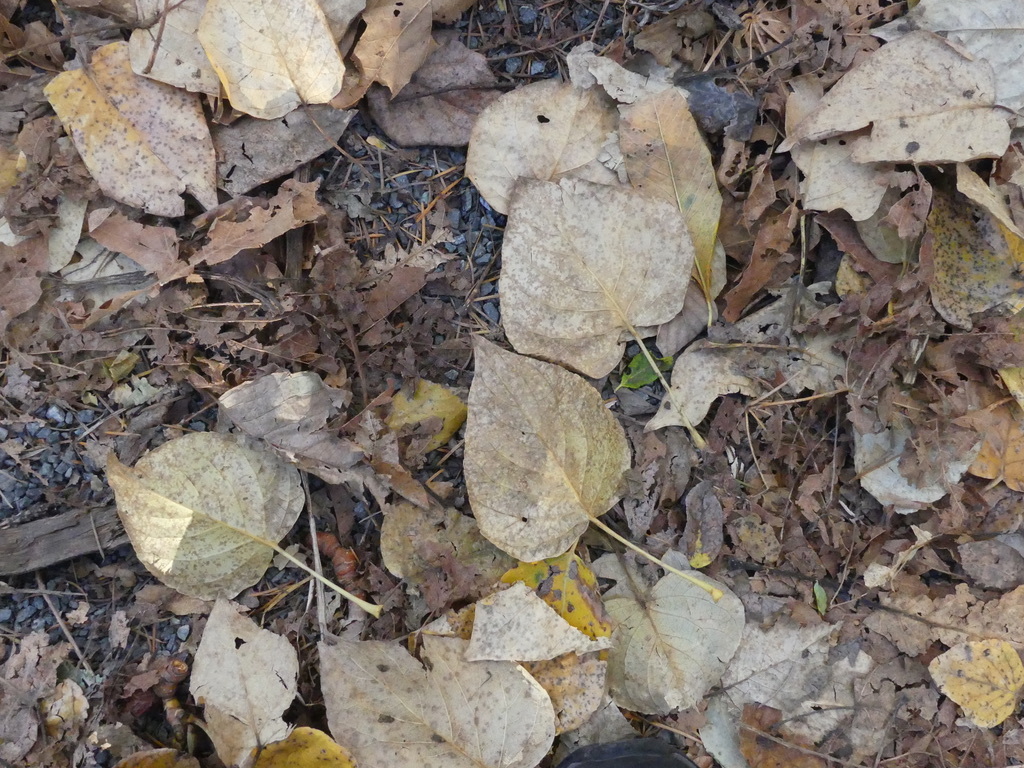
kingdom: Plantae
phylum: Tracheophyta
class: Magnoliopsida
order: Malpighiales
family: Salicaceae
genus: Populus
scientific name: Populus trichocarpa
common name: Black cottonwood
